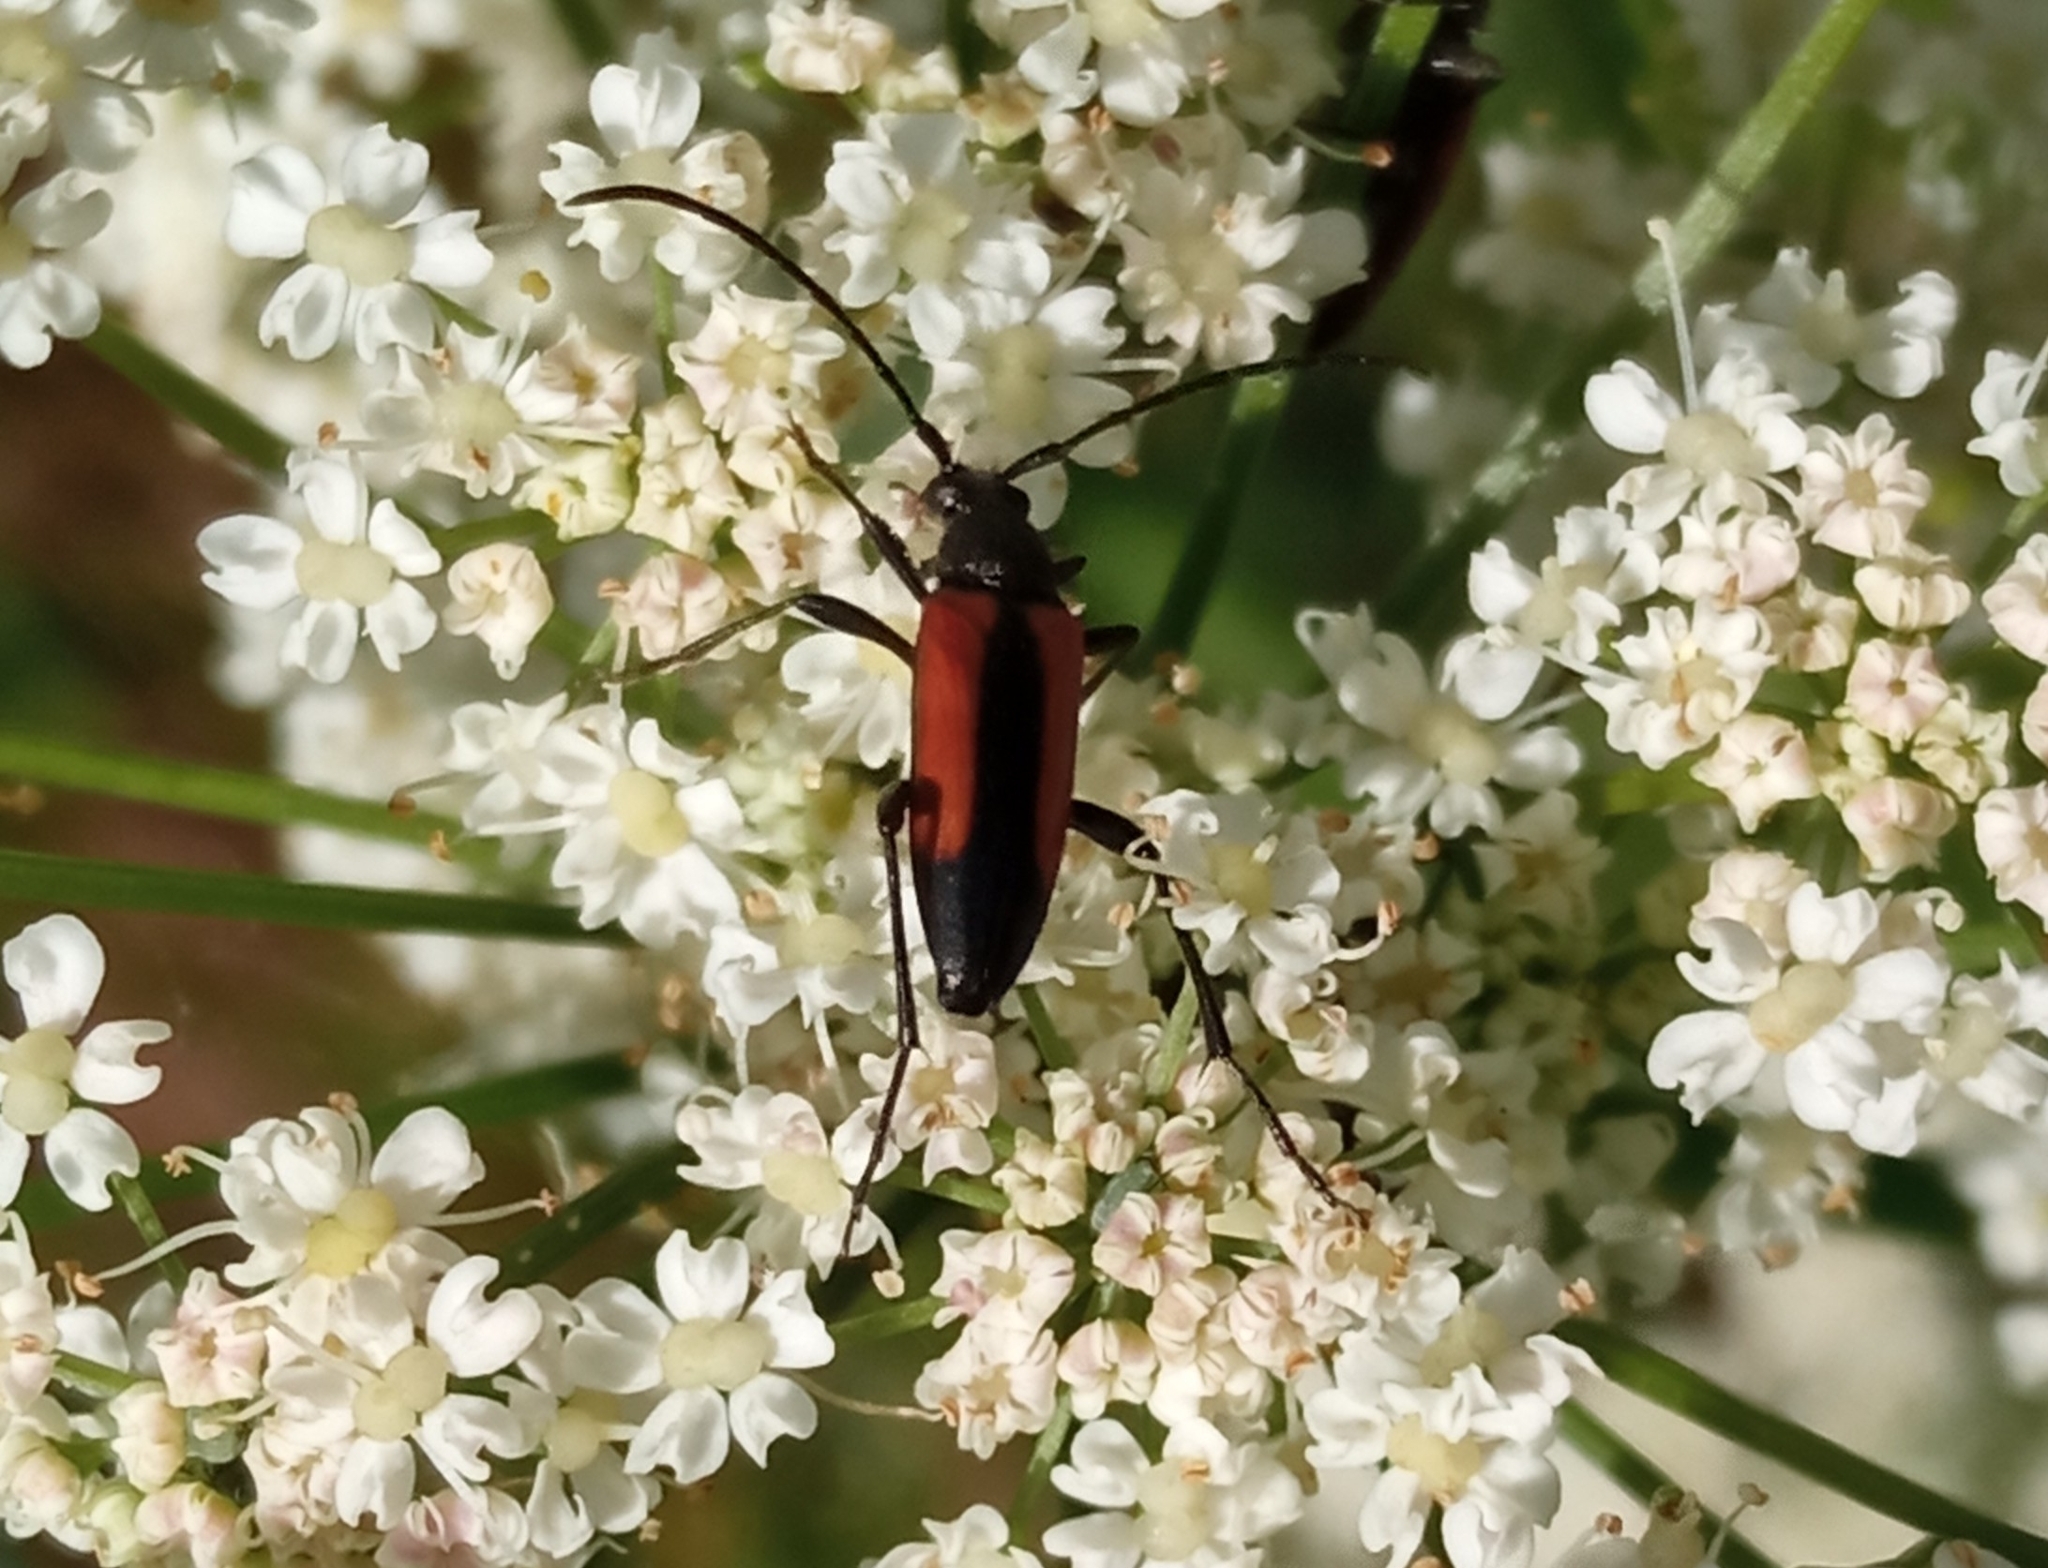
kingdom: Animalia
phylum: Arthropoda
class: Insecta
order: Coleoptera
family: Cerambycidae
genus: Stenurella
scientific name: Stenurella melanura
